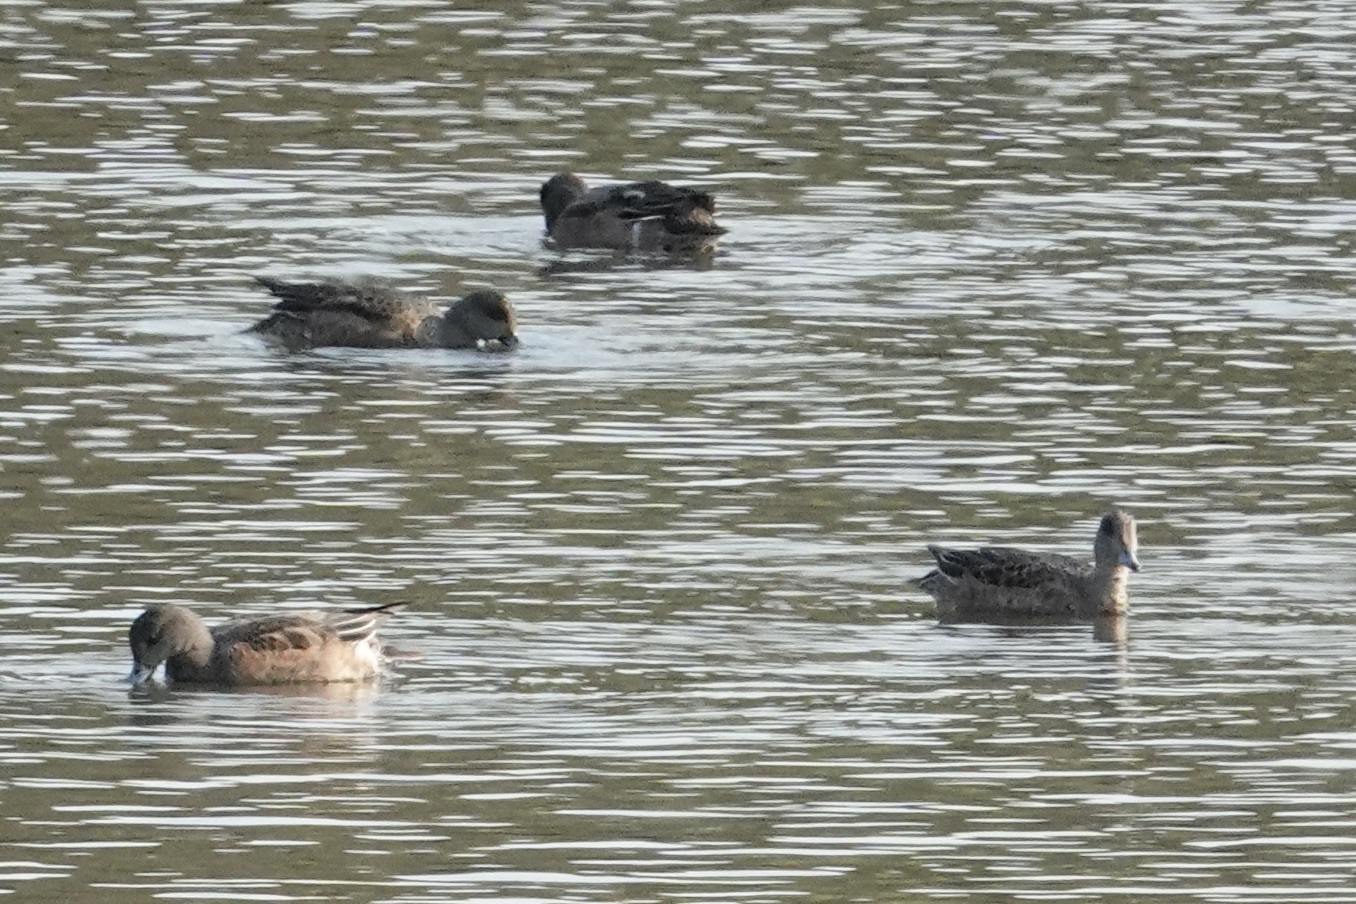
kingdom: Animalia
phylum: Chordata
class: Aves
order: Anseriformes
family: Anatidae
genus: Mareca
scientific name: Mareca americana
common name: American wigeon
